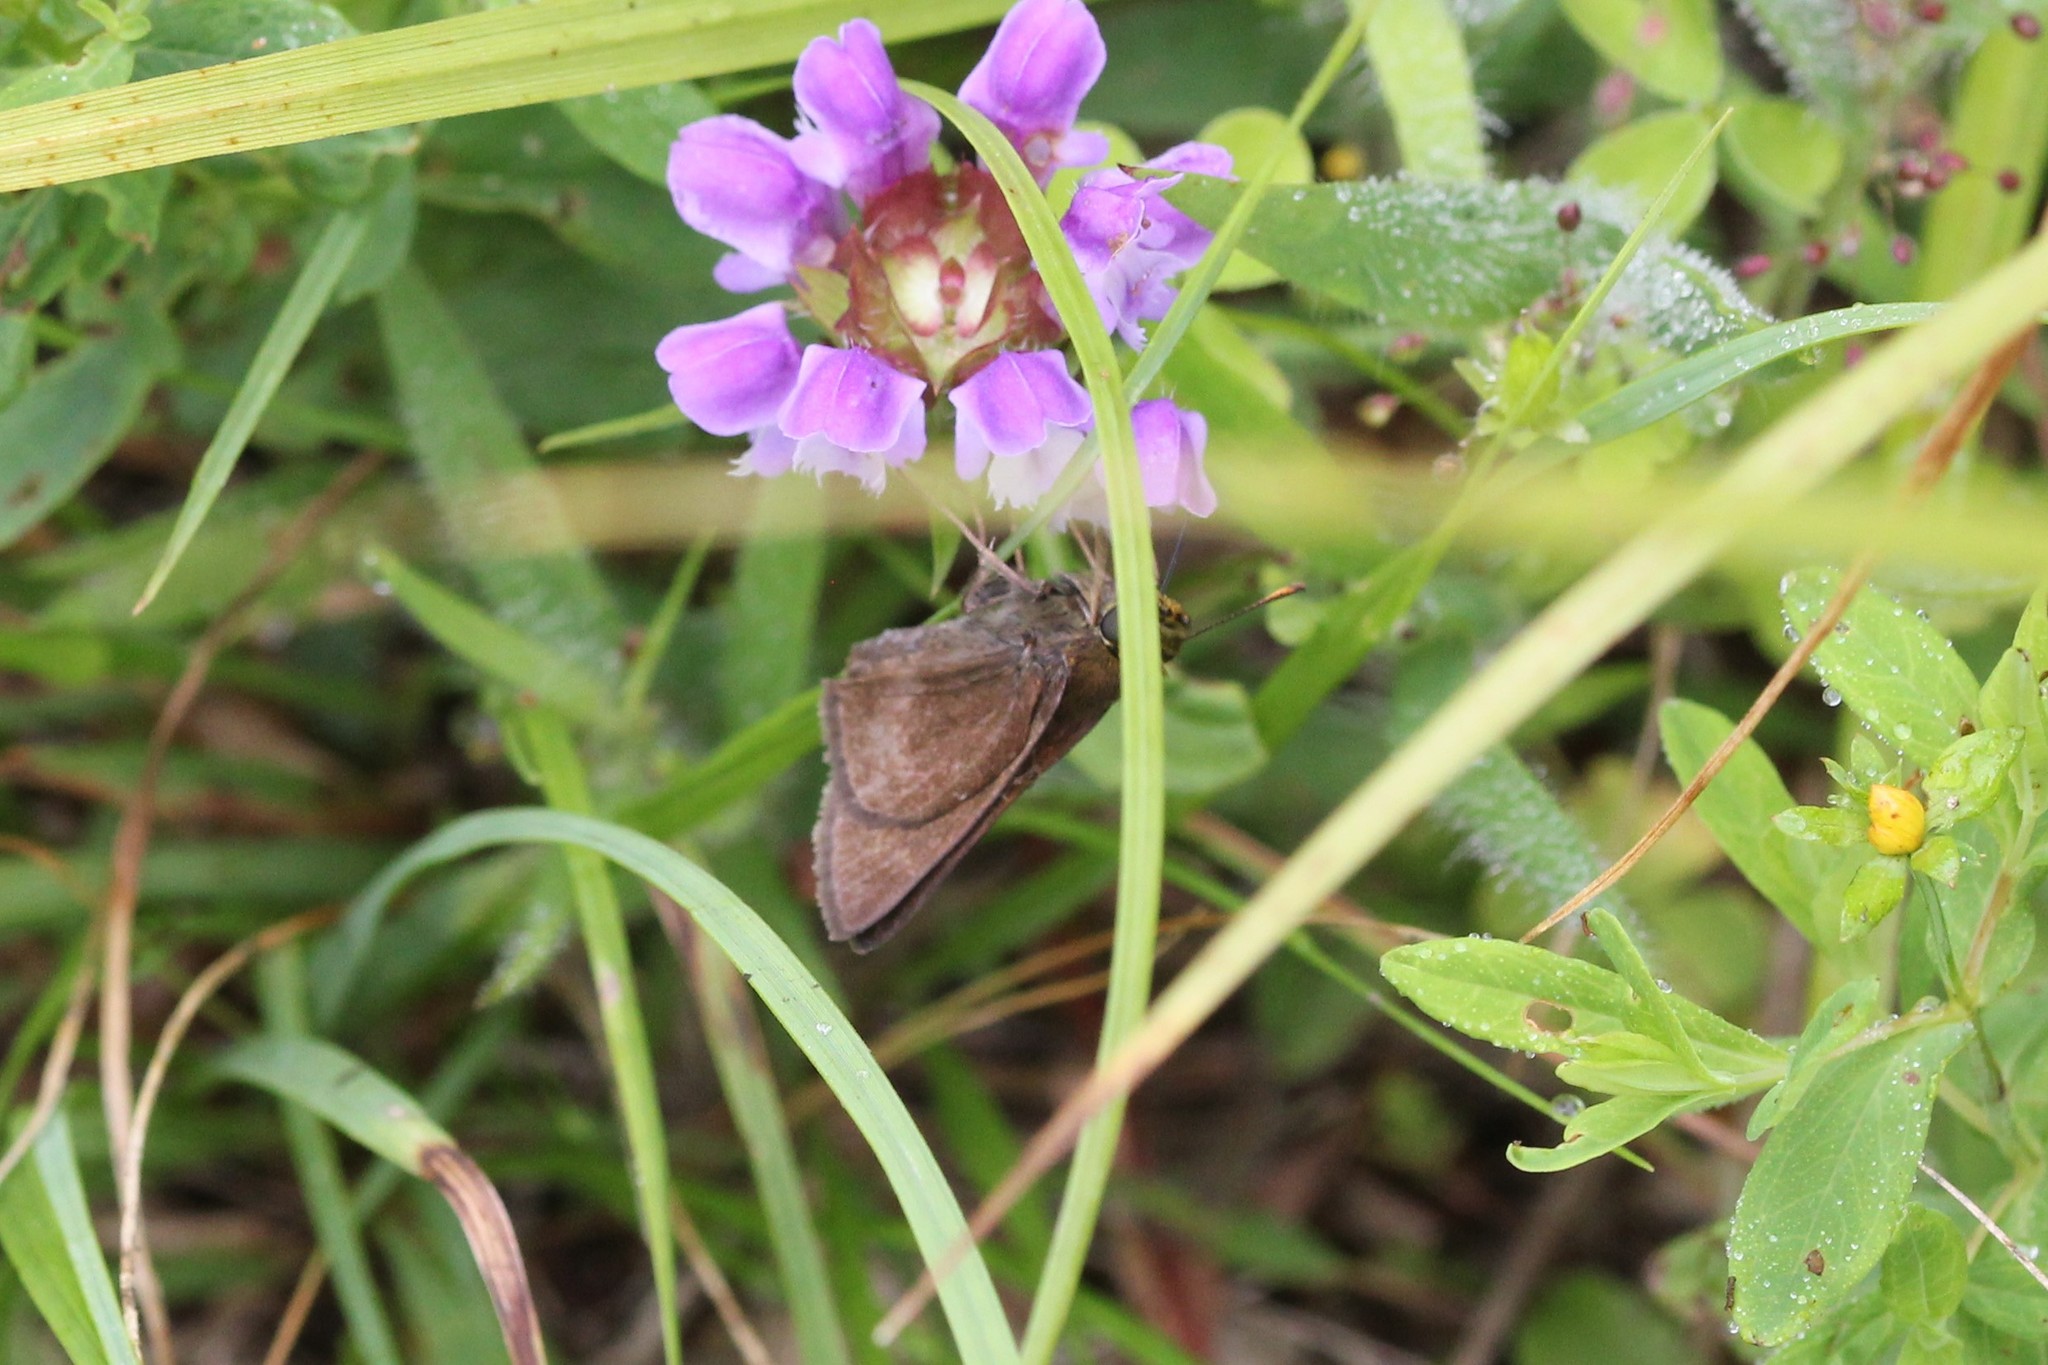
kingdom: Animalia
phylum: Arthropoda
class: Insecta
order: Lepidoptera
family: Hesperiidae
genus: Euphyes
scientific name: Euphyes vestris
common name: Dun skipper
